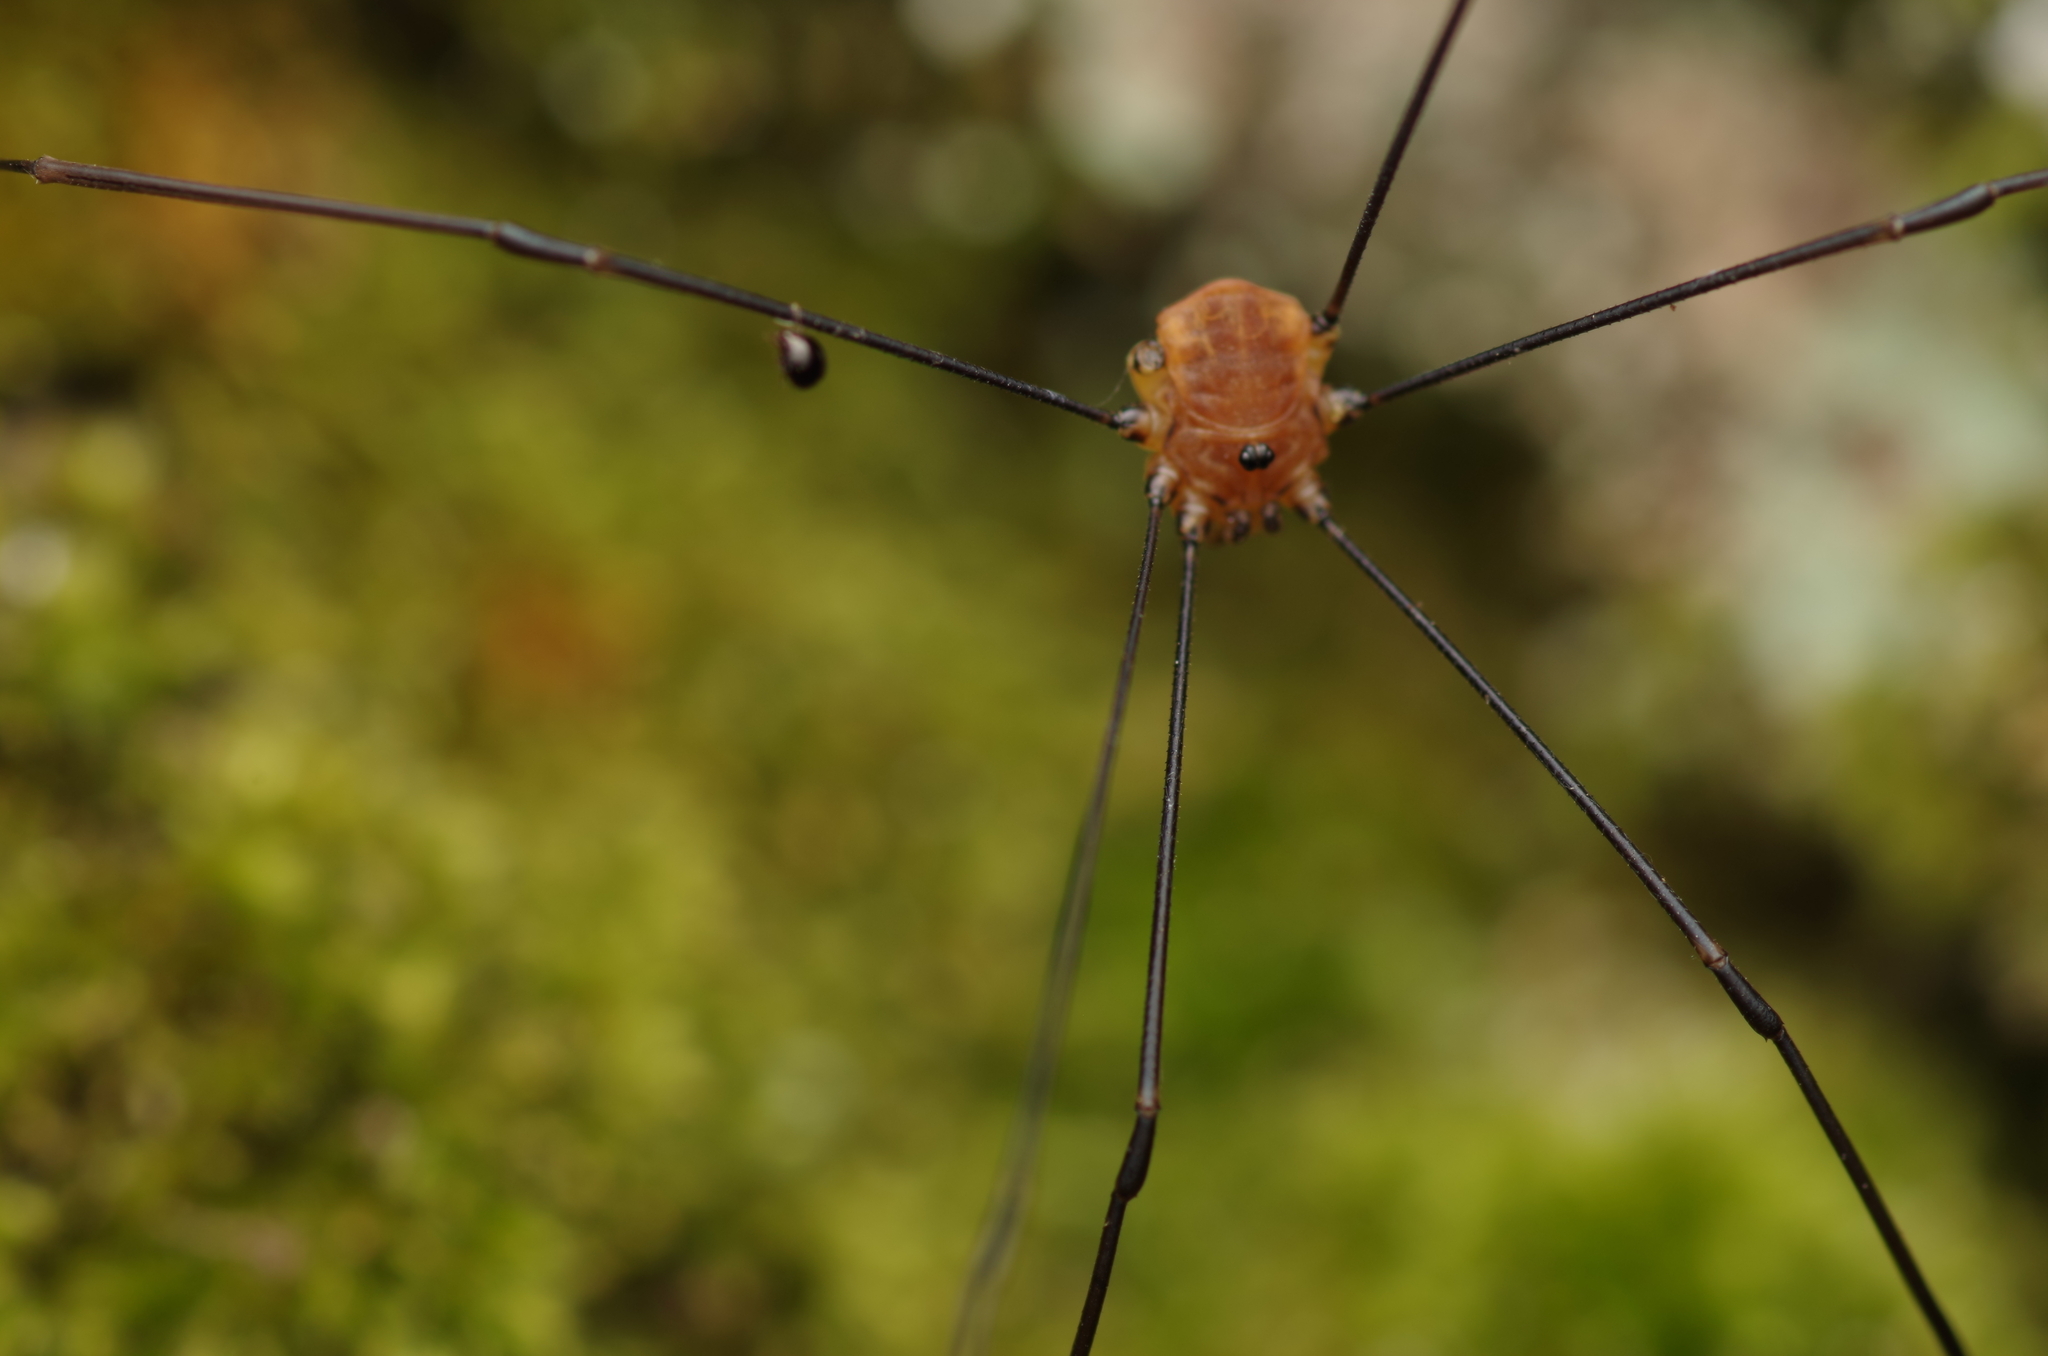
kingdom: Animalia
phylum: Arthropoda
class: Arachnida
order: Opiliones
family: Sclerosomatidae
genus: Leiobunum
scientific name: Leiobunum rotundum
